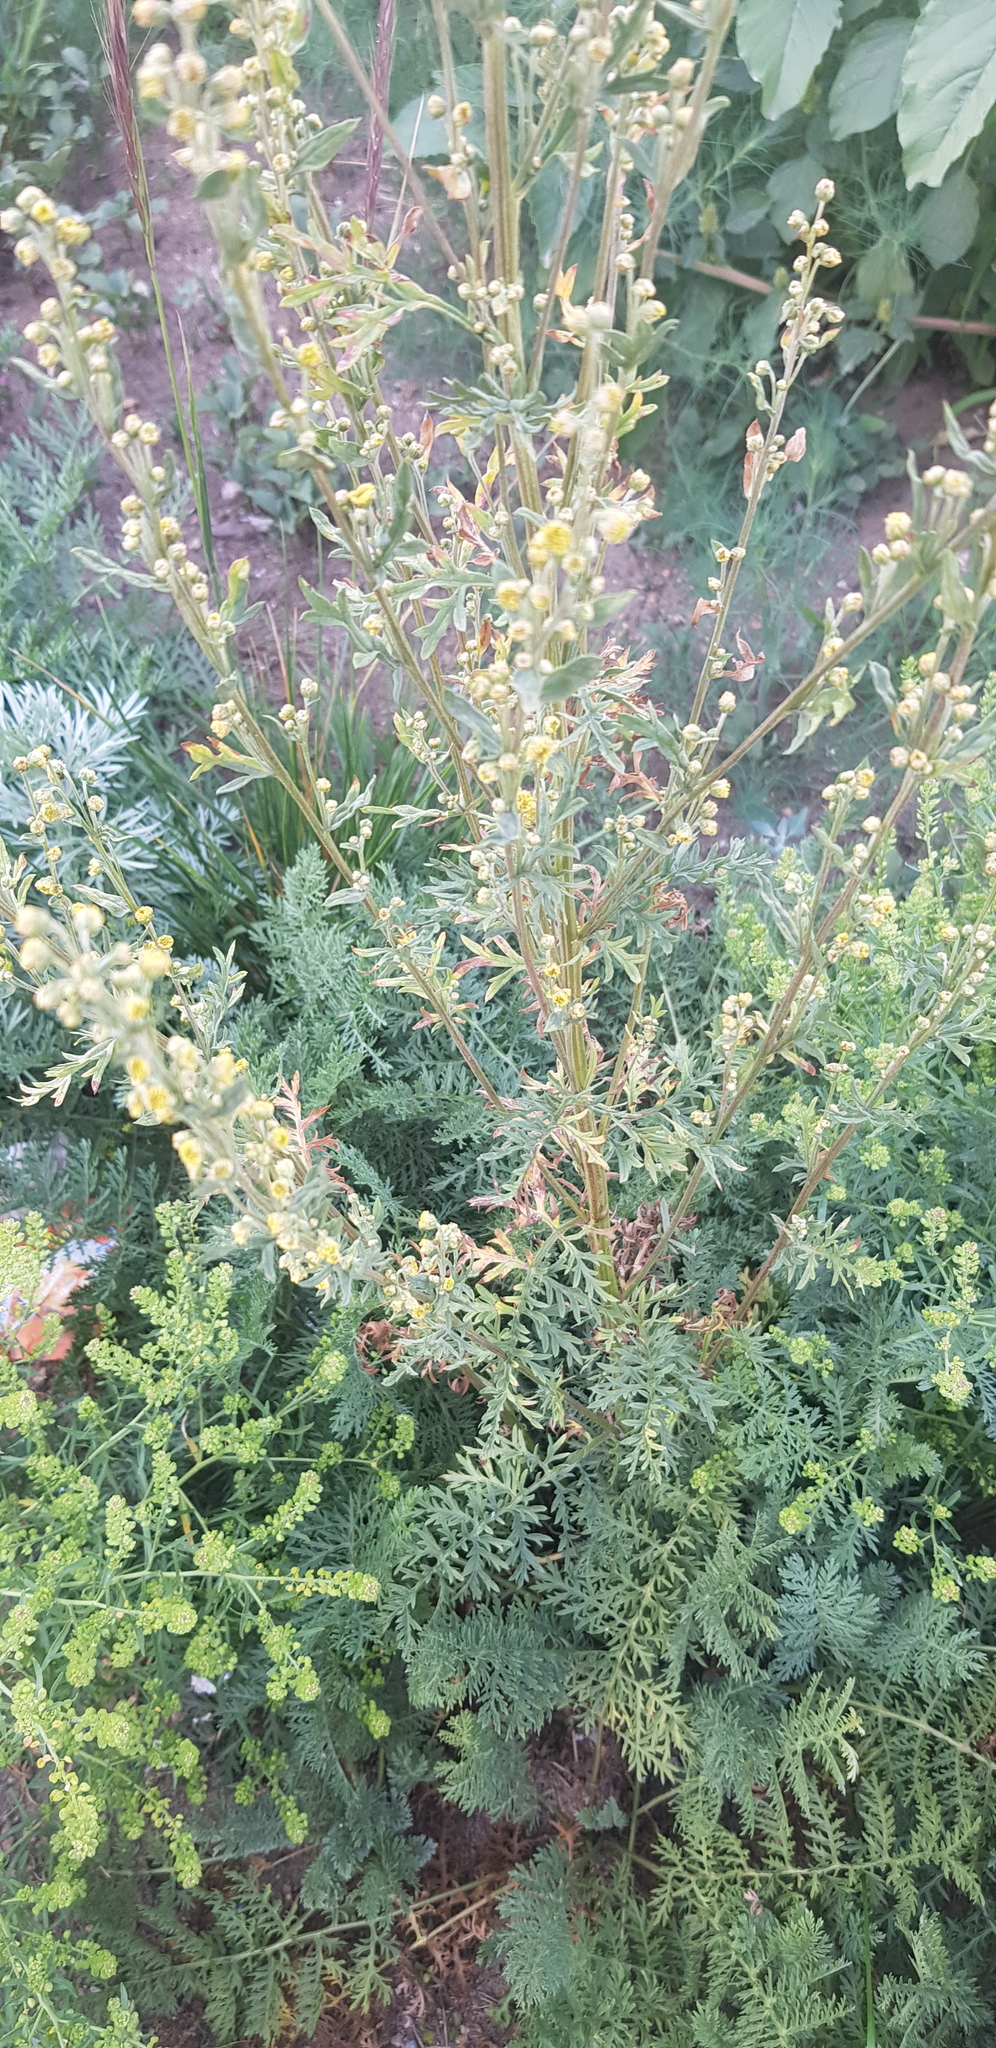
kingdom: Plantae
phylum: Tracheophyta
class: Magnoliopsida
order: Asterales
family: Asteraceae
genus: Artemisia
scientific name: Artemisia gmelinii
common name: Gmelin's wormwood
